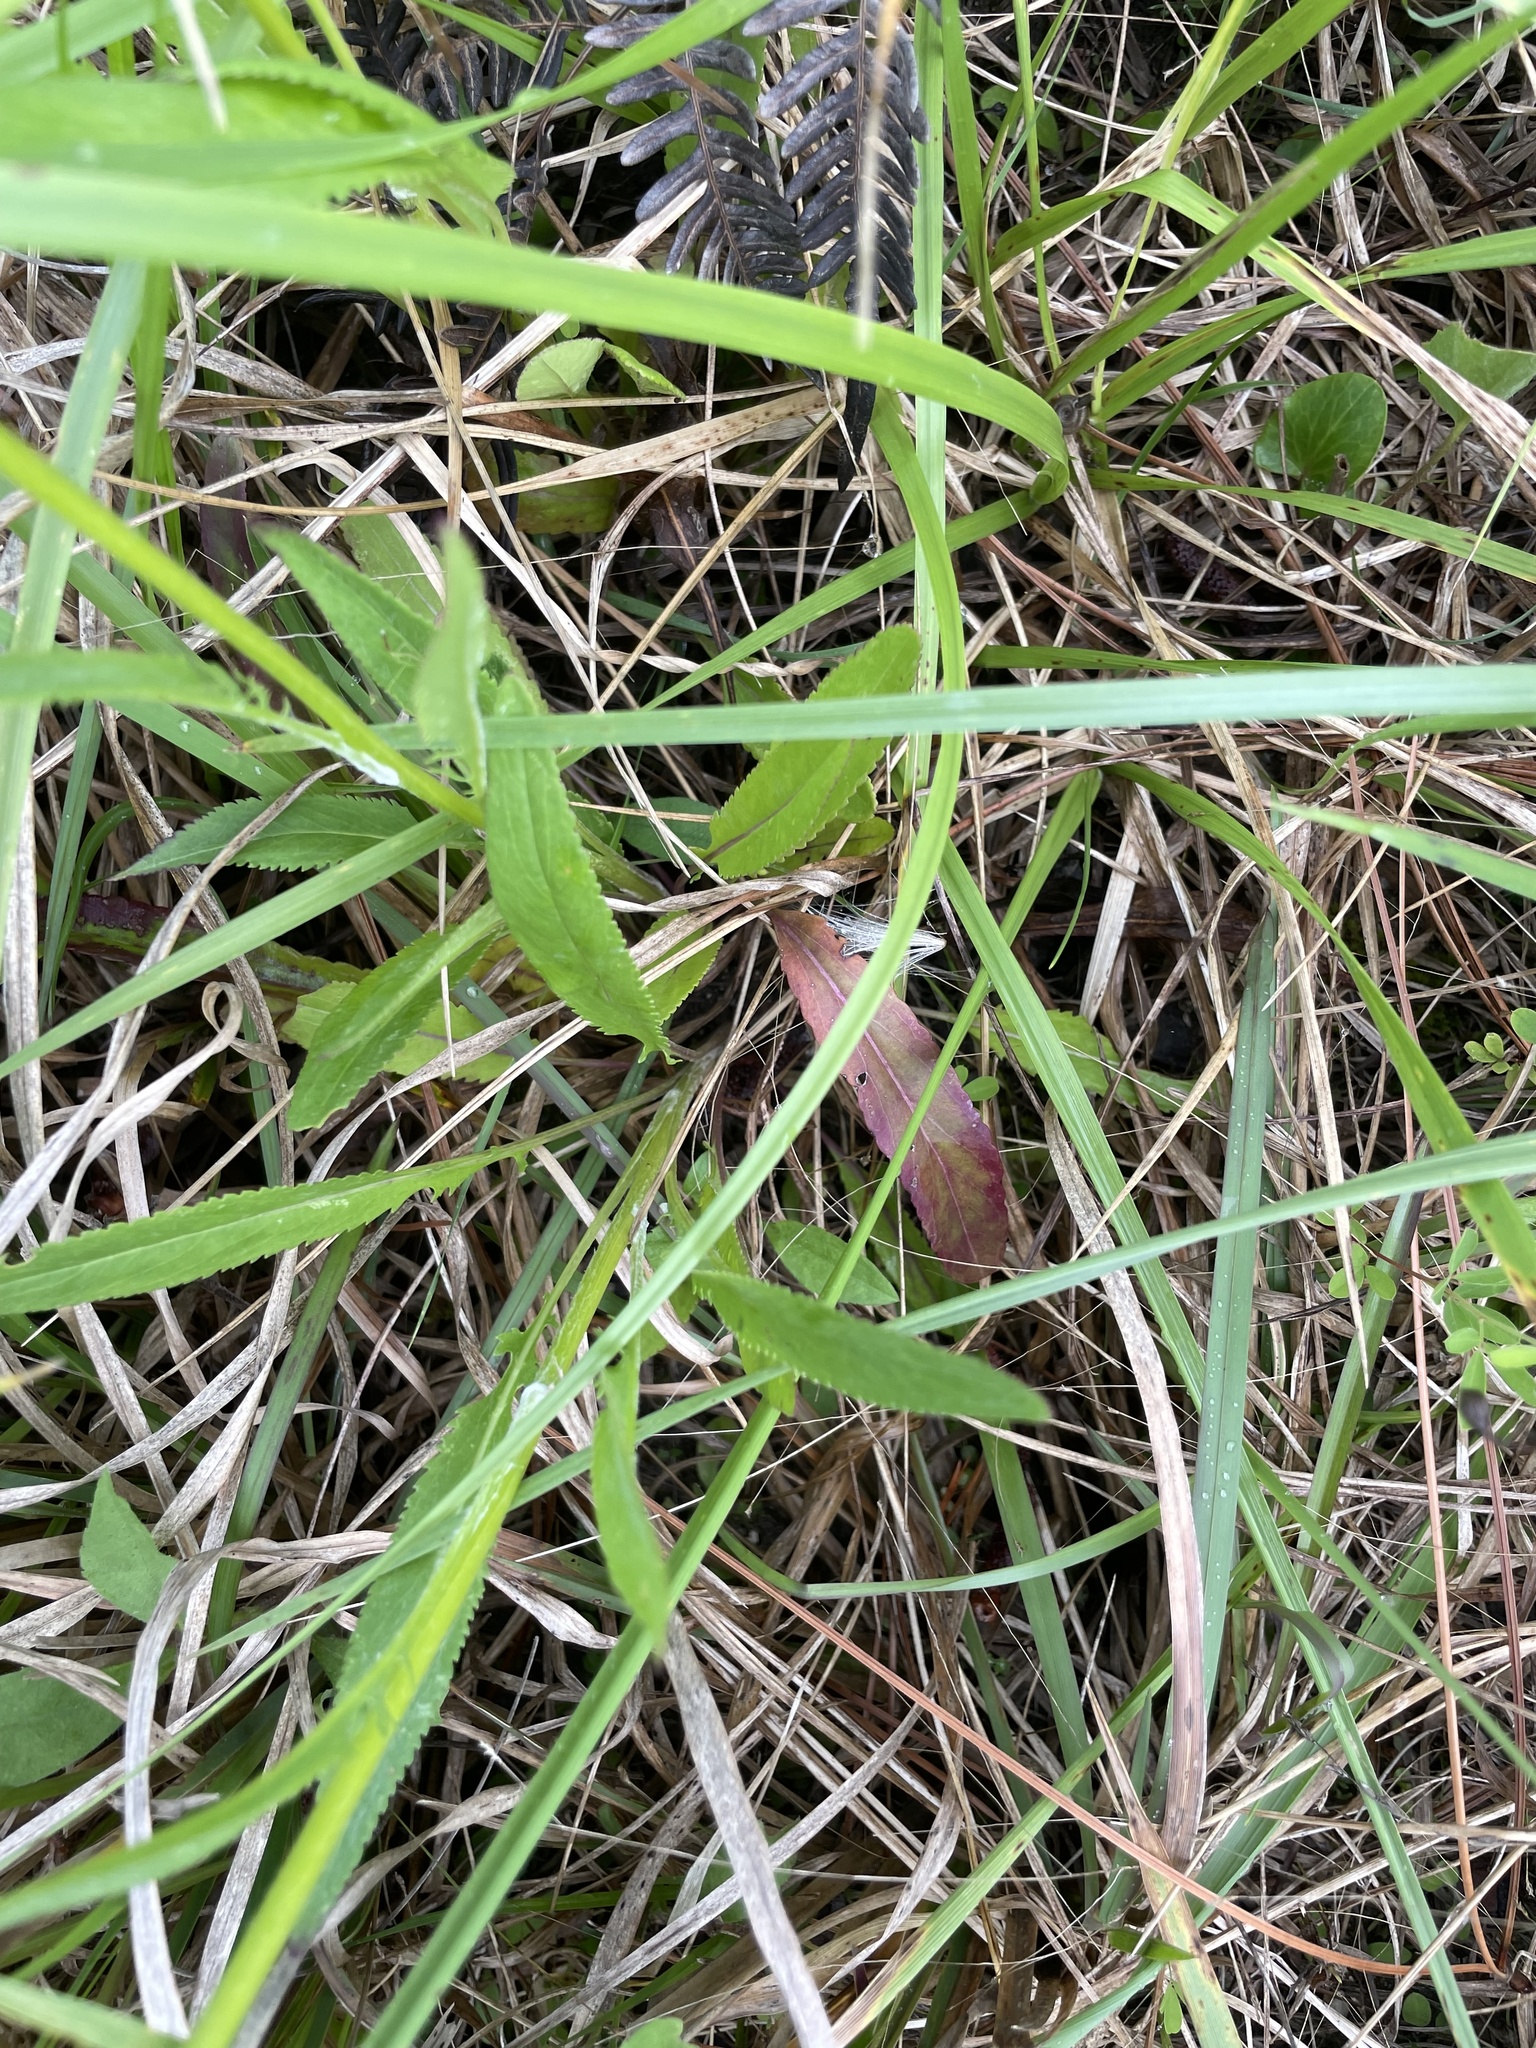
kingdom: Plantae
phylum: Tracheophyta
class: Liliopsida
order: Asparagales
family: Iridaceae
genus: Sisyrinchium
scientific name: Sisyrinchium capillare
